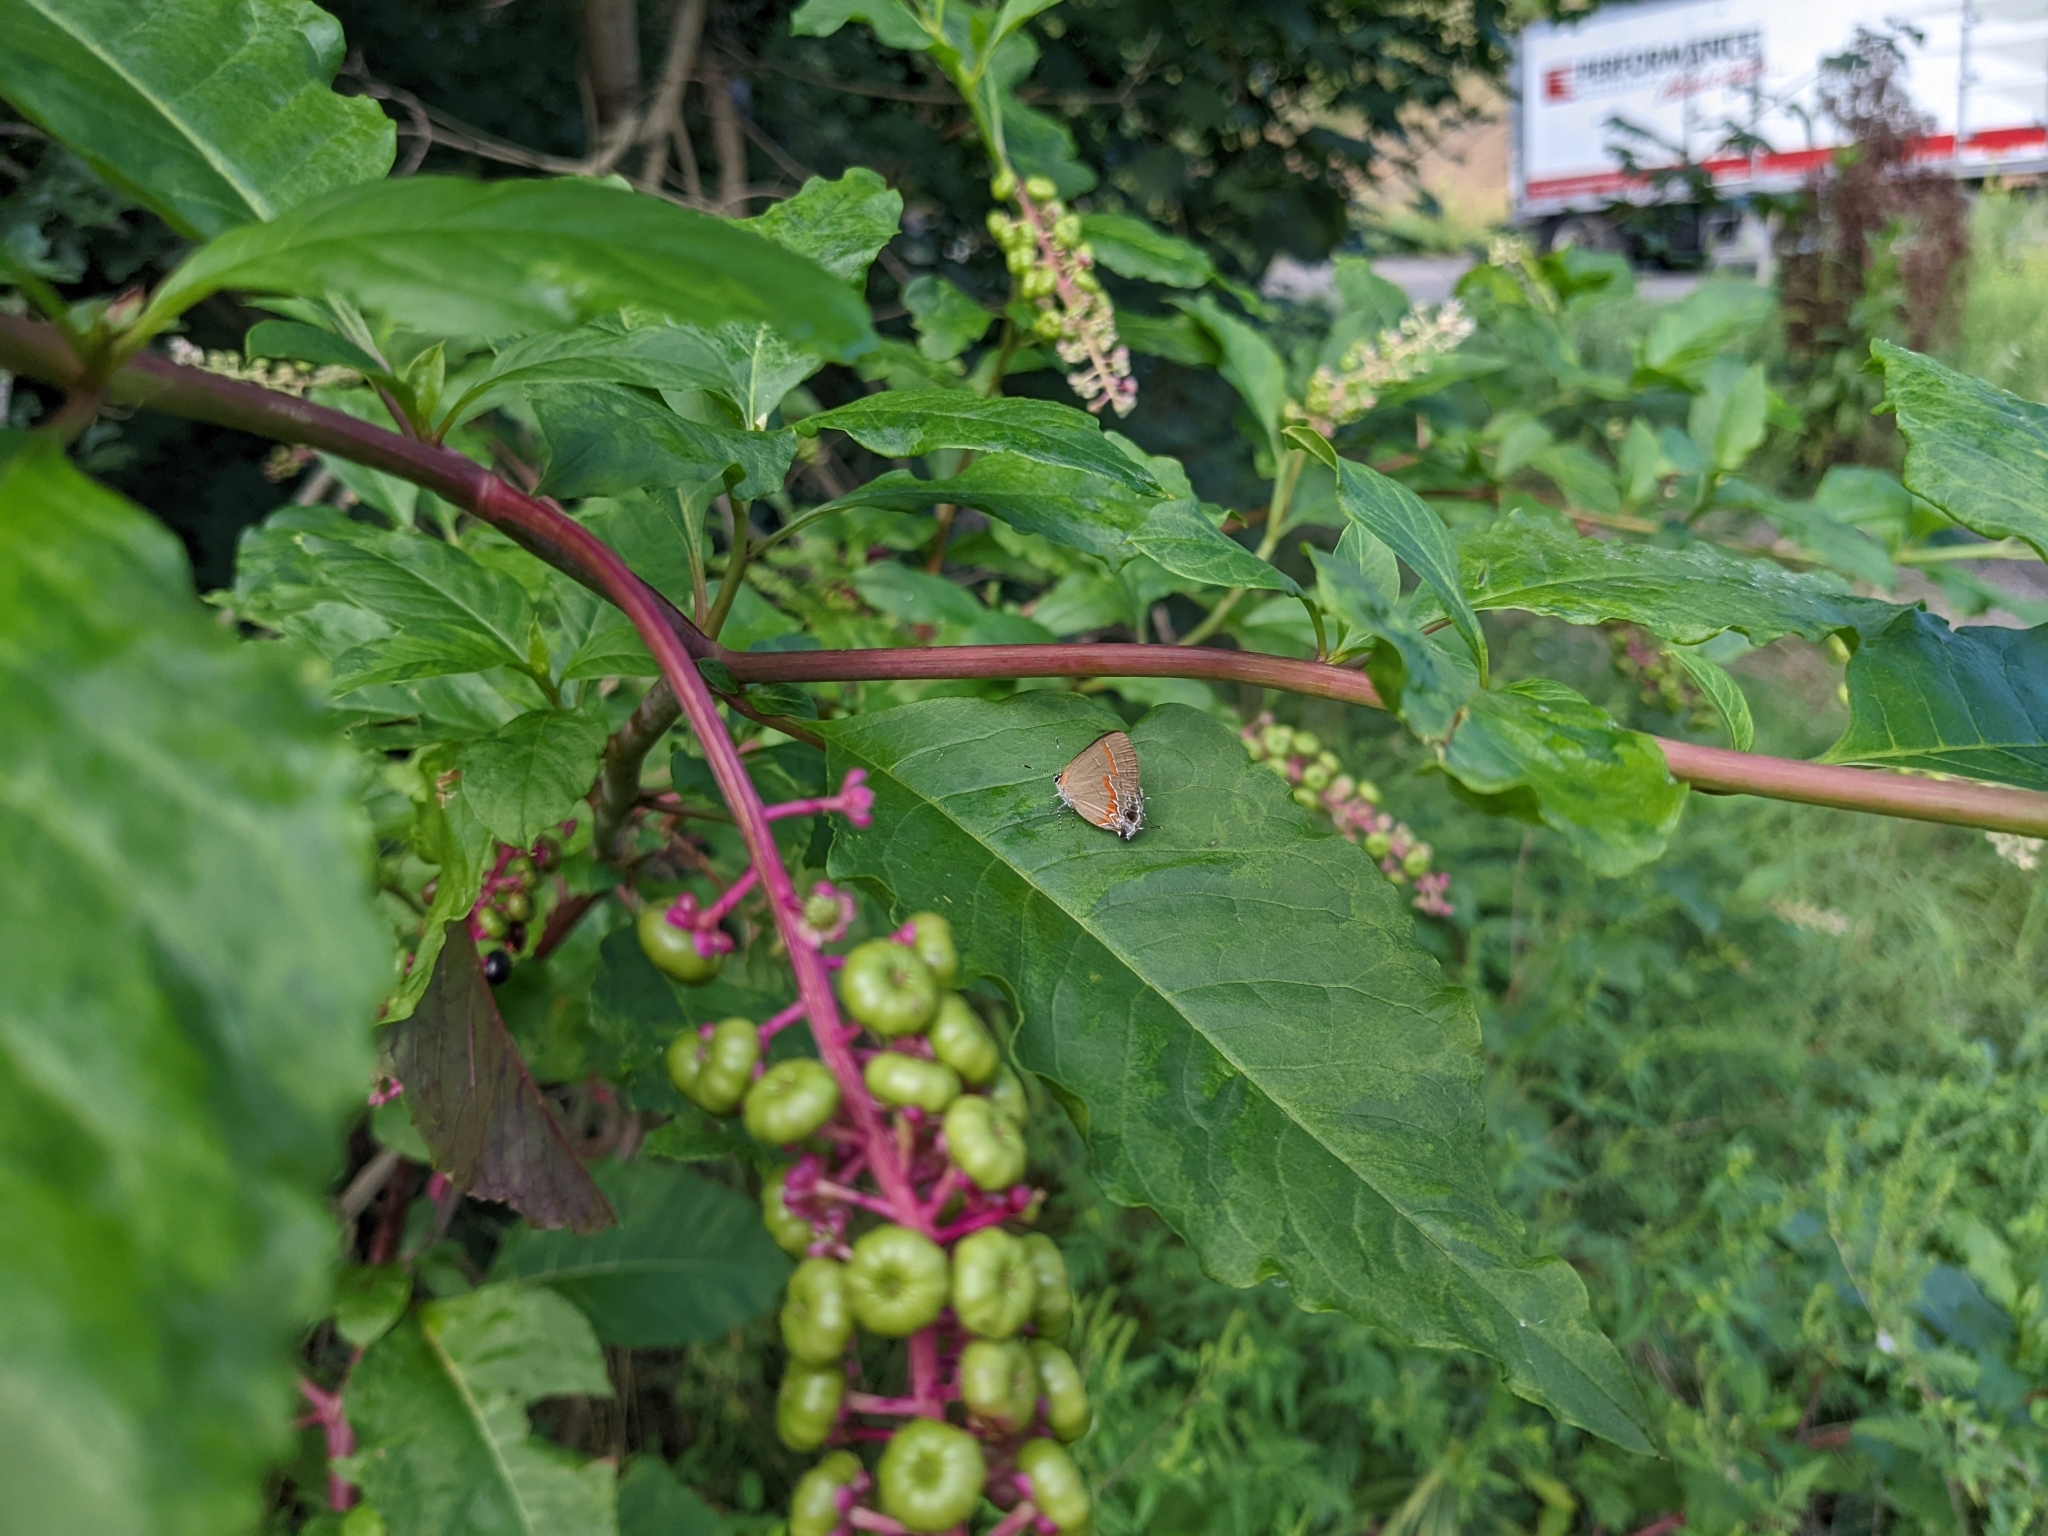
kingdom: Animalia
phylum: Arthropoda
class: Insecta
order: Lepidoptera
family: Lycaenidae
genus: Calycopis
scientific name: Calycopis cecrops
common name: Red-banded hairstreak
